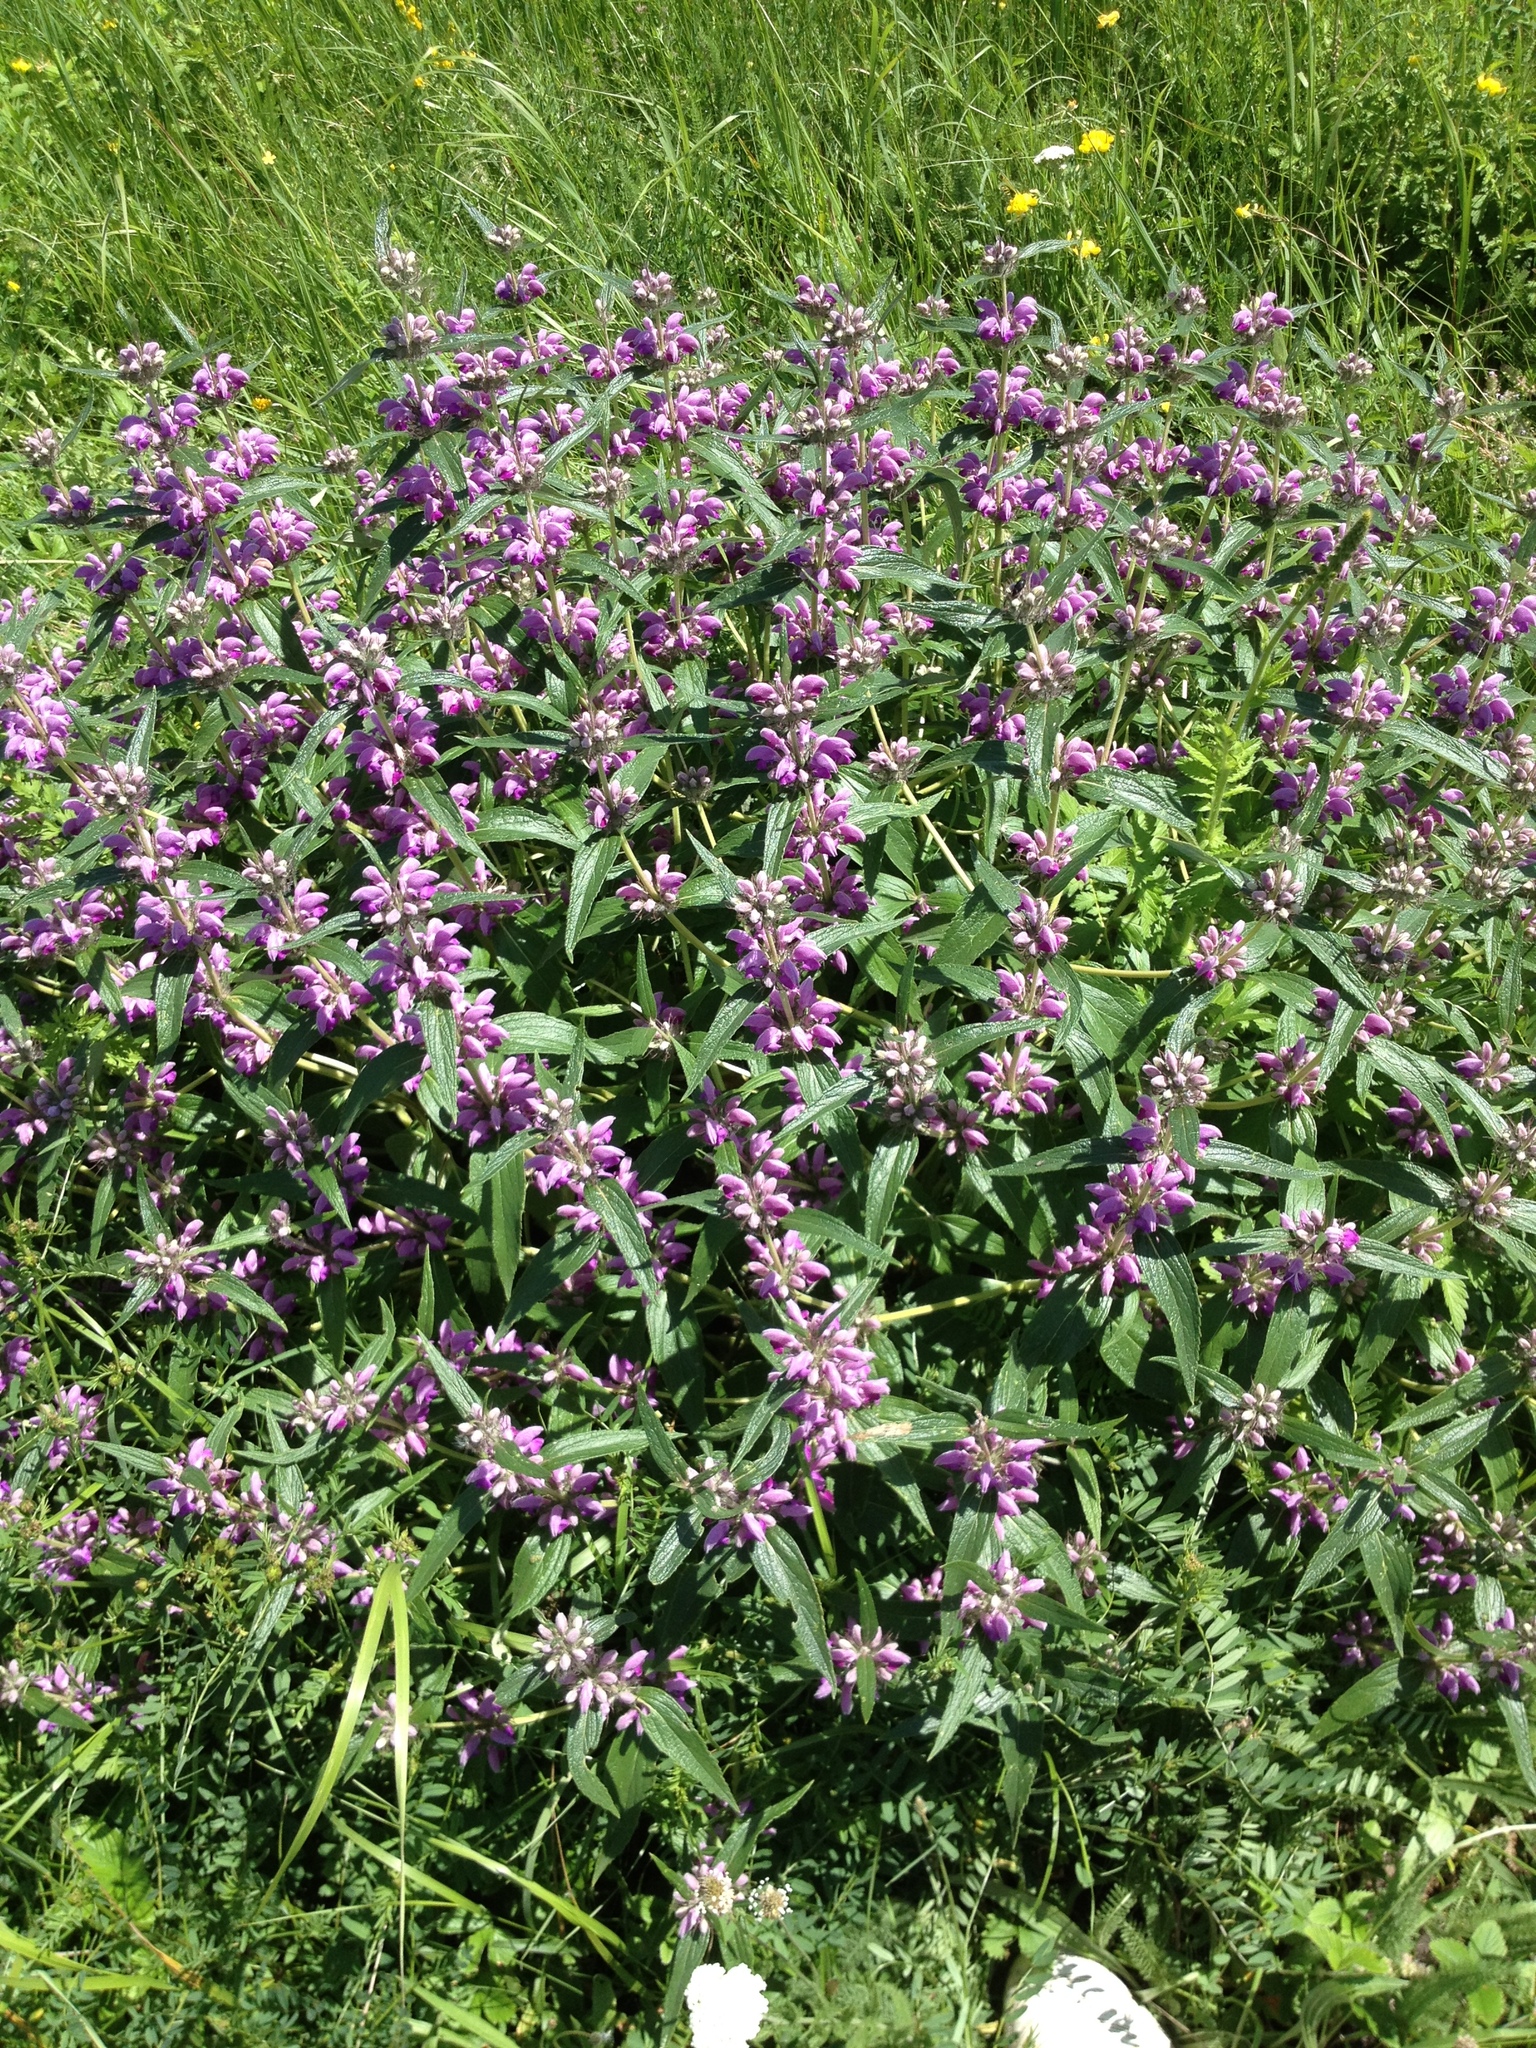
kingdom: Plantae
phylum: Tracheophyta
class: Magnoliopsida
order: Lamiales
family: Lamiaceae
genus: Phlomis
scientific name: Phlomis herba-venti
